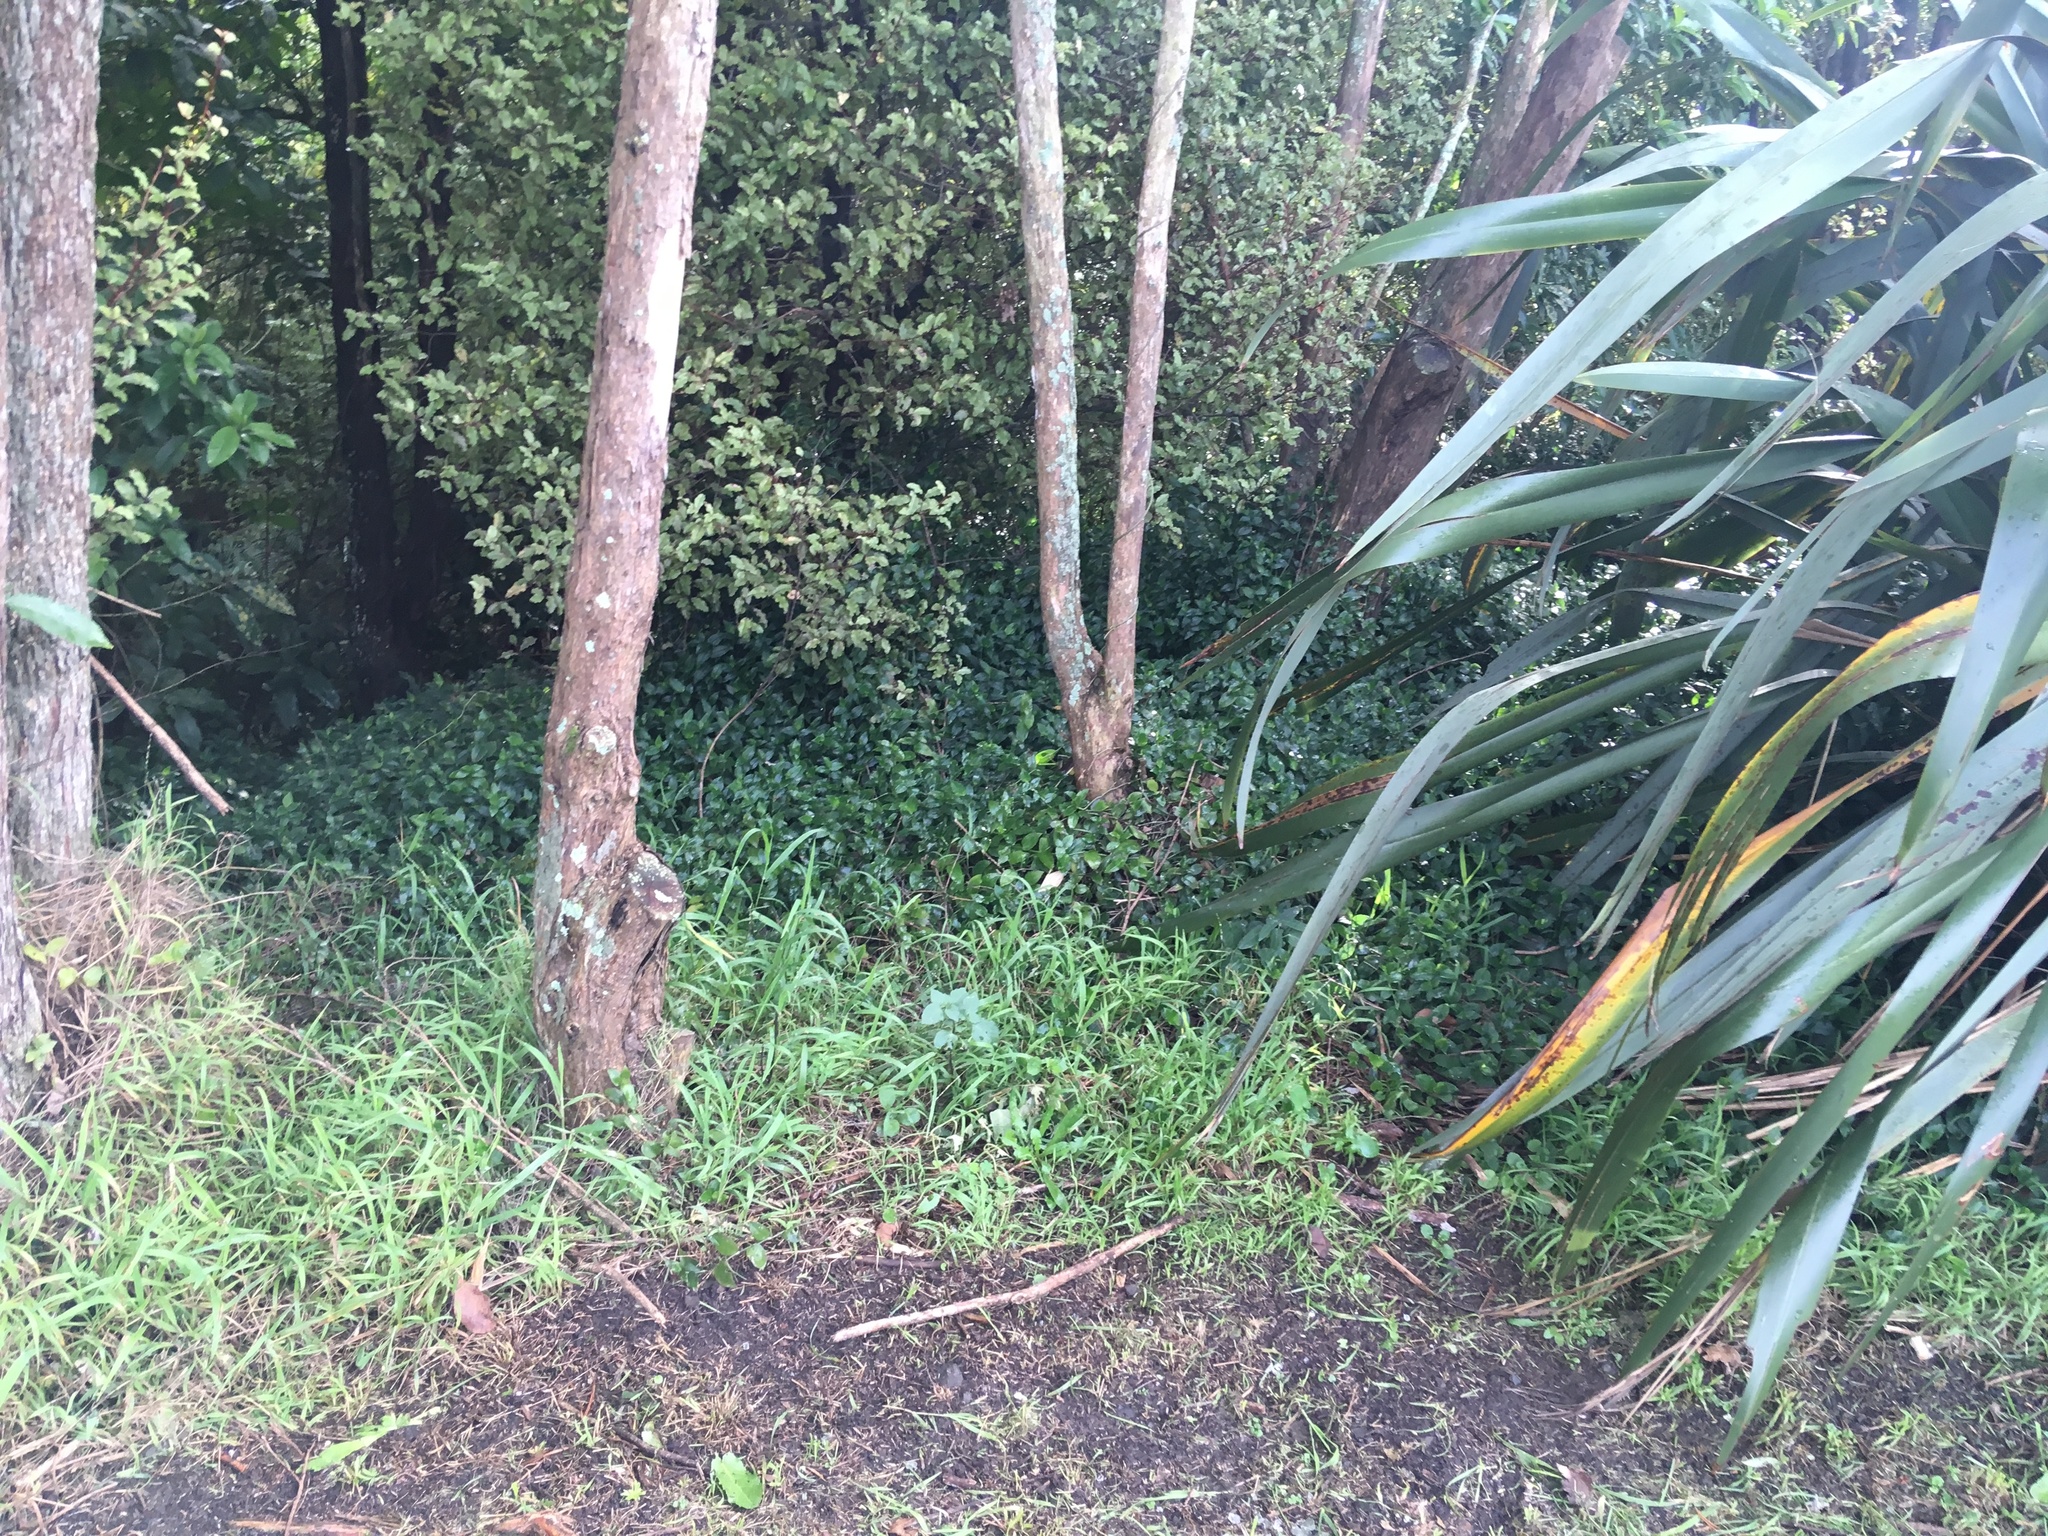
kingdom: Plantae
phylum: Tracheophyta
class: Liliopsida
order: Poales
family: Poaceae
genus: Ehrharta
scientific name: Ehrharta erecta
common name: Panic veldtgrass
